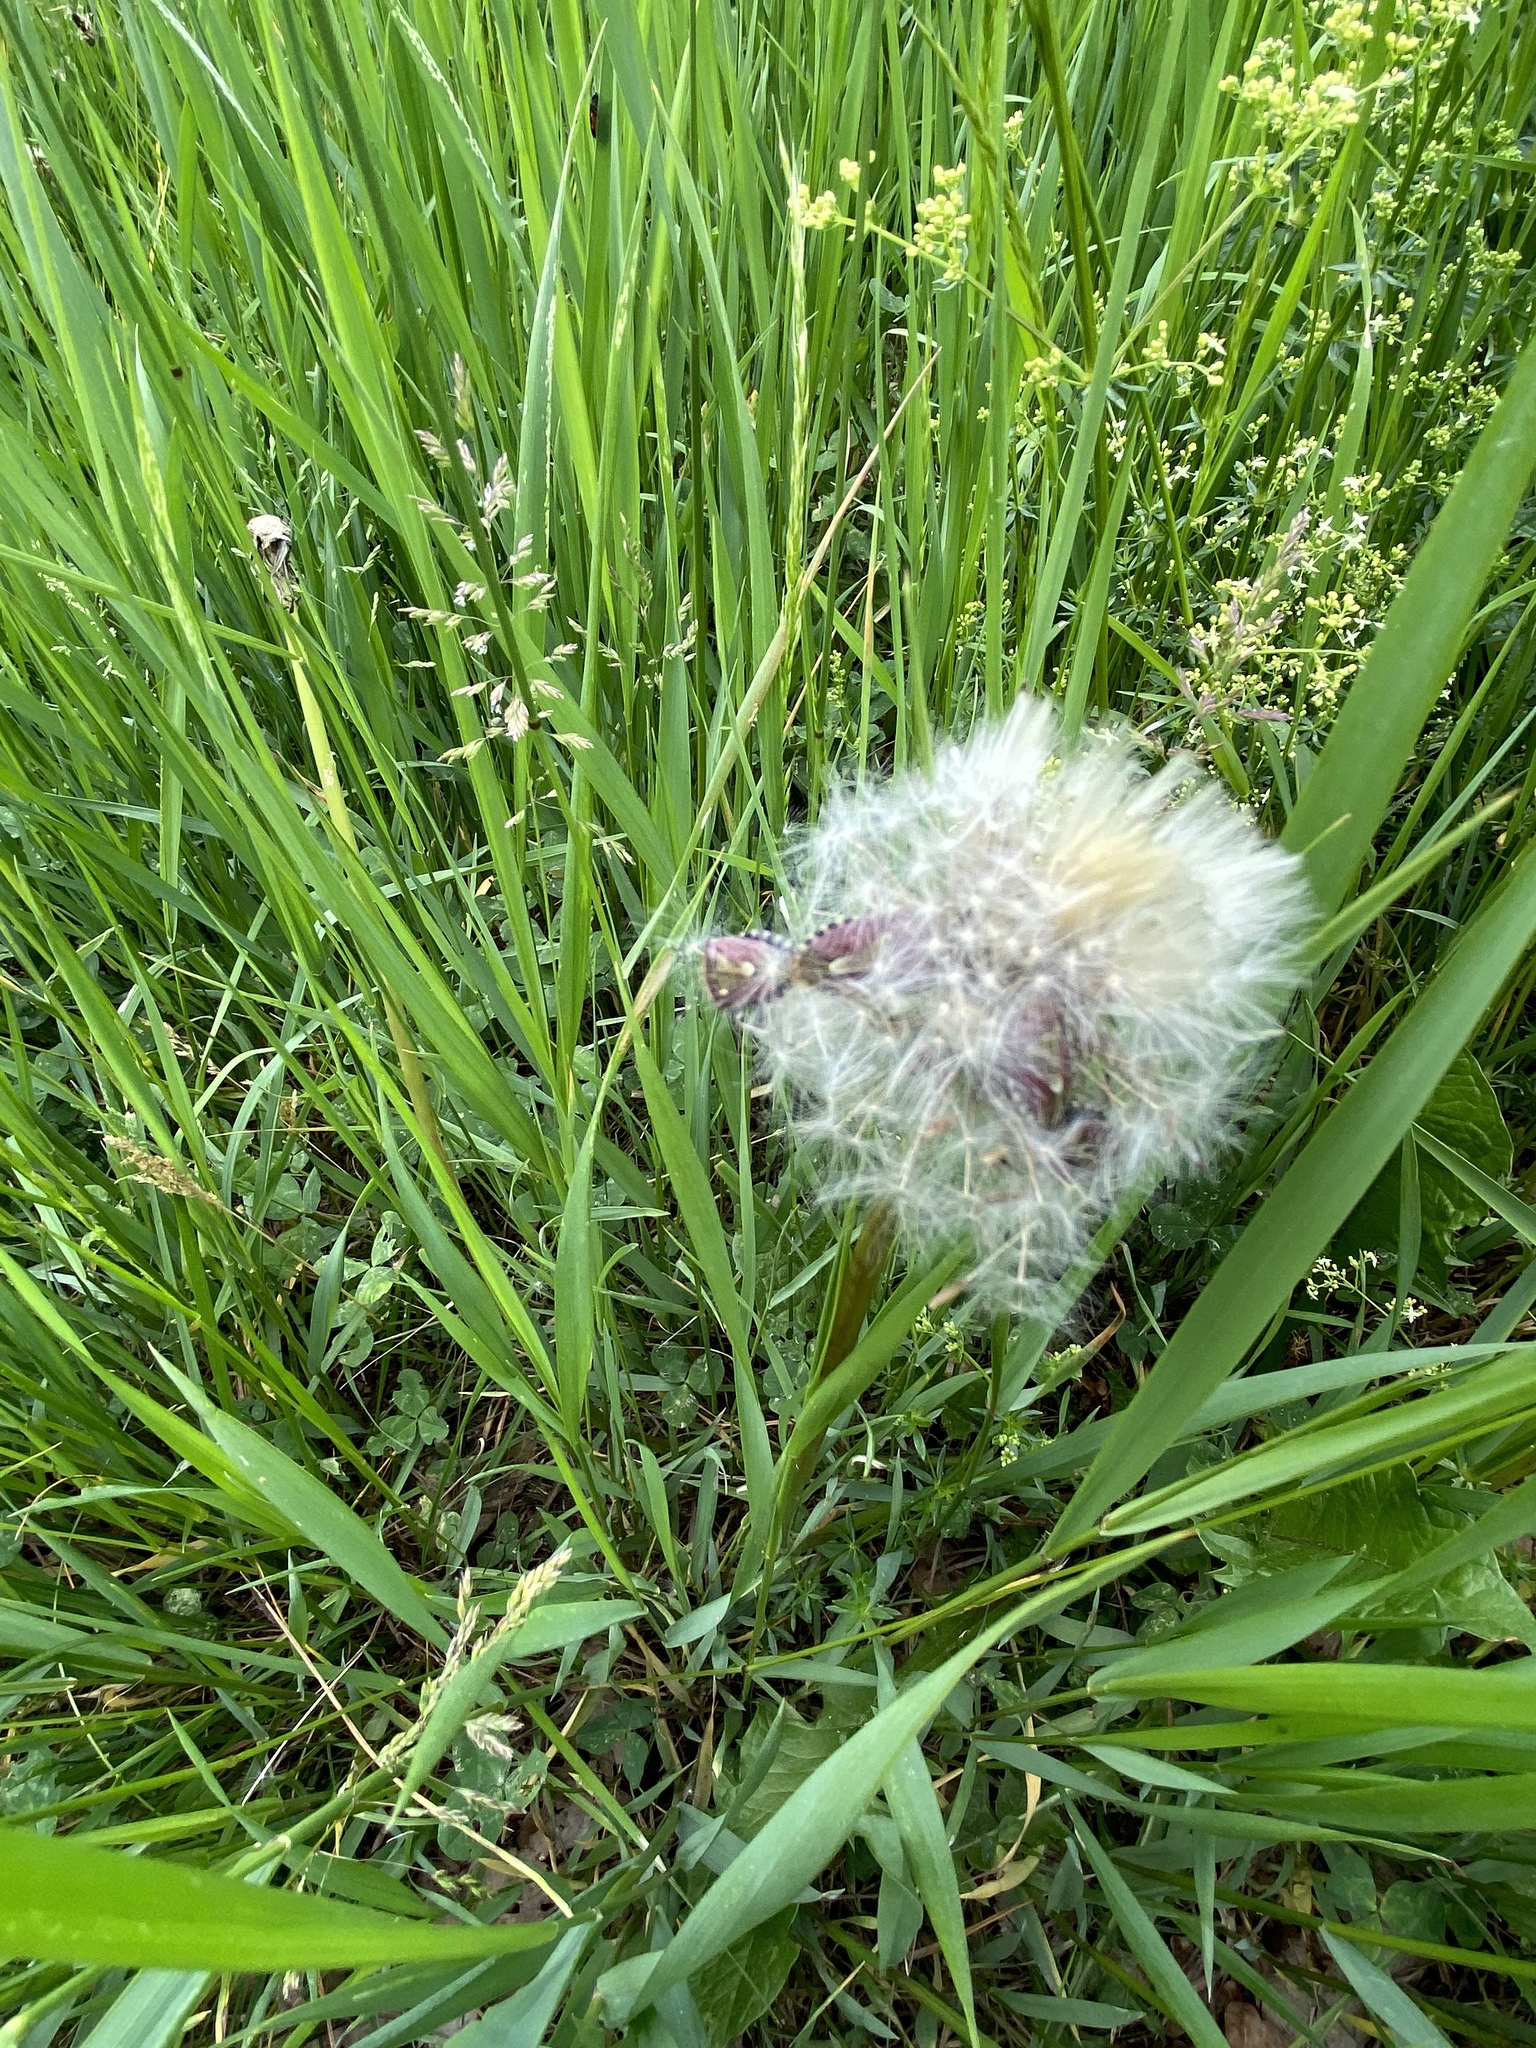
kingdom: Animalia
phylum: Arthropoda
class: Insecta
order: Hemiptera
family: Pentatomidae
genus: Dolycoris
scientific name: Dolycoris baccarum
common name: Sloe bug
